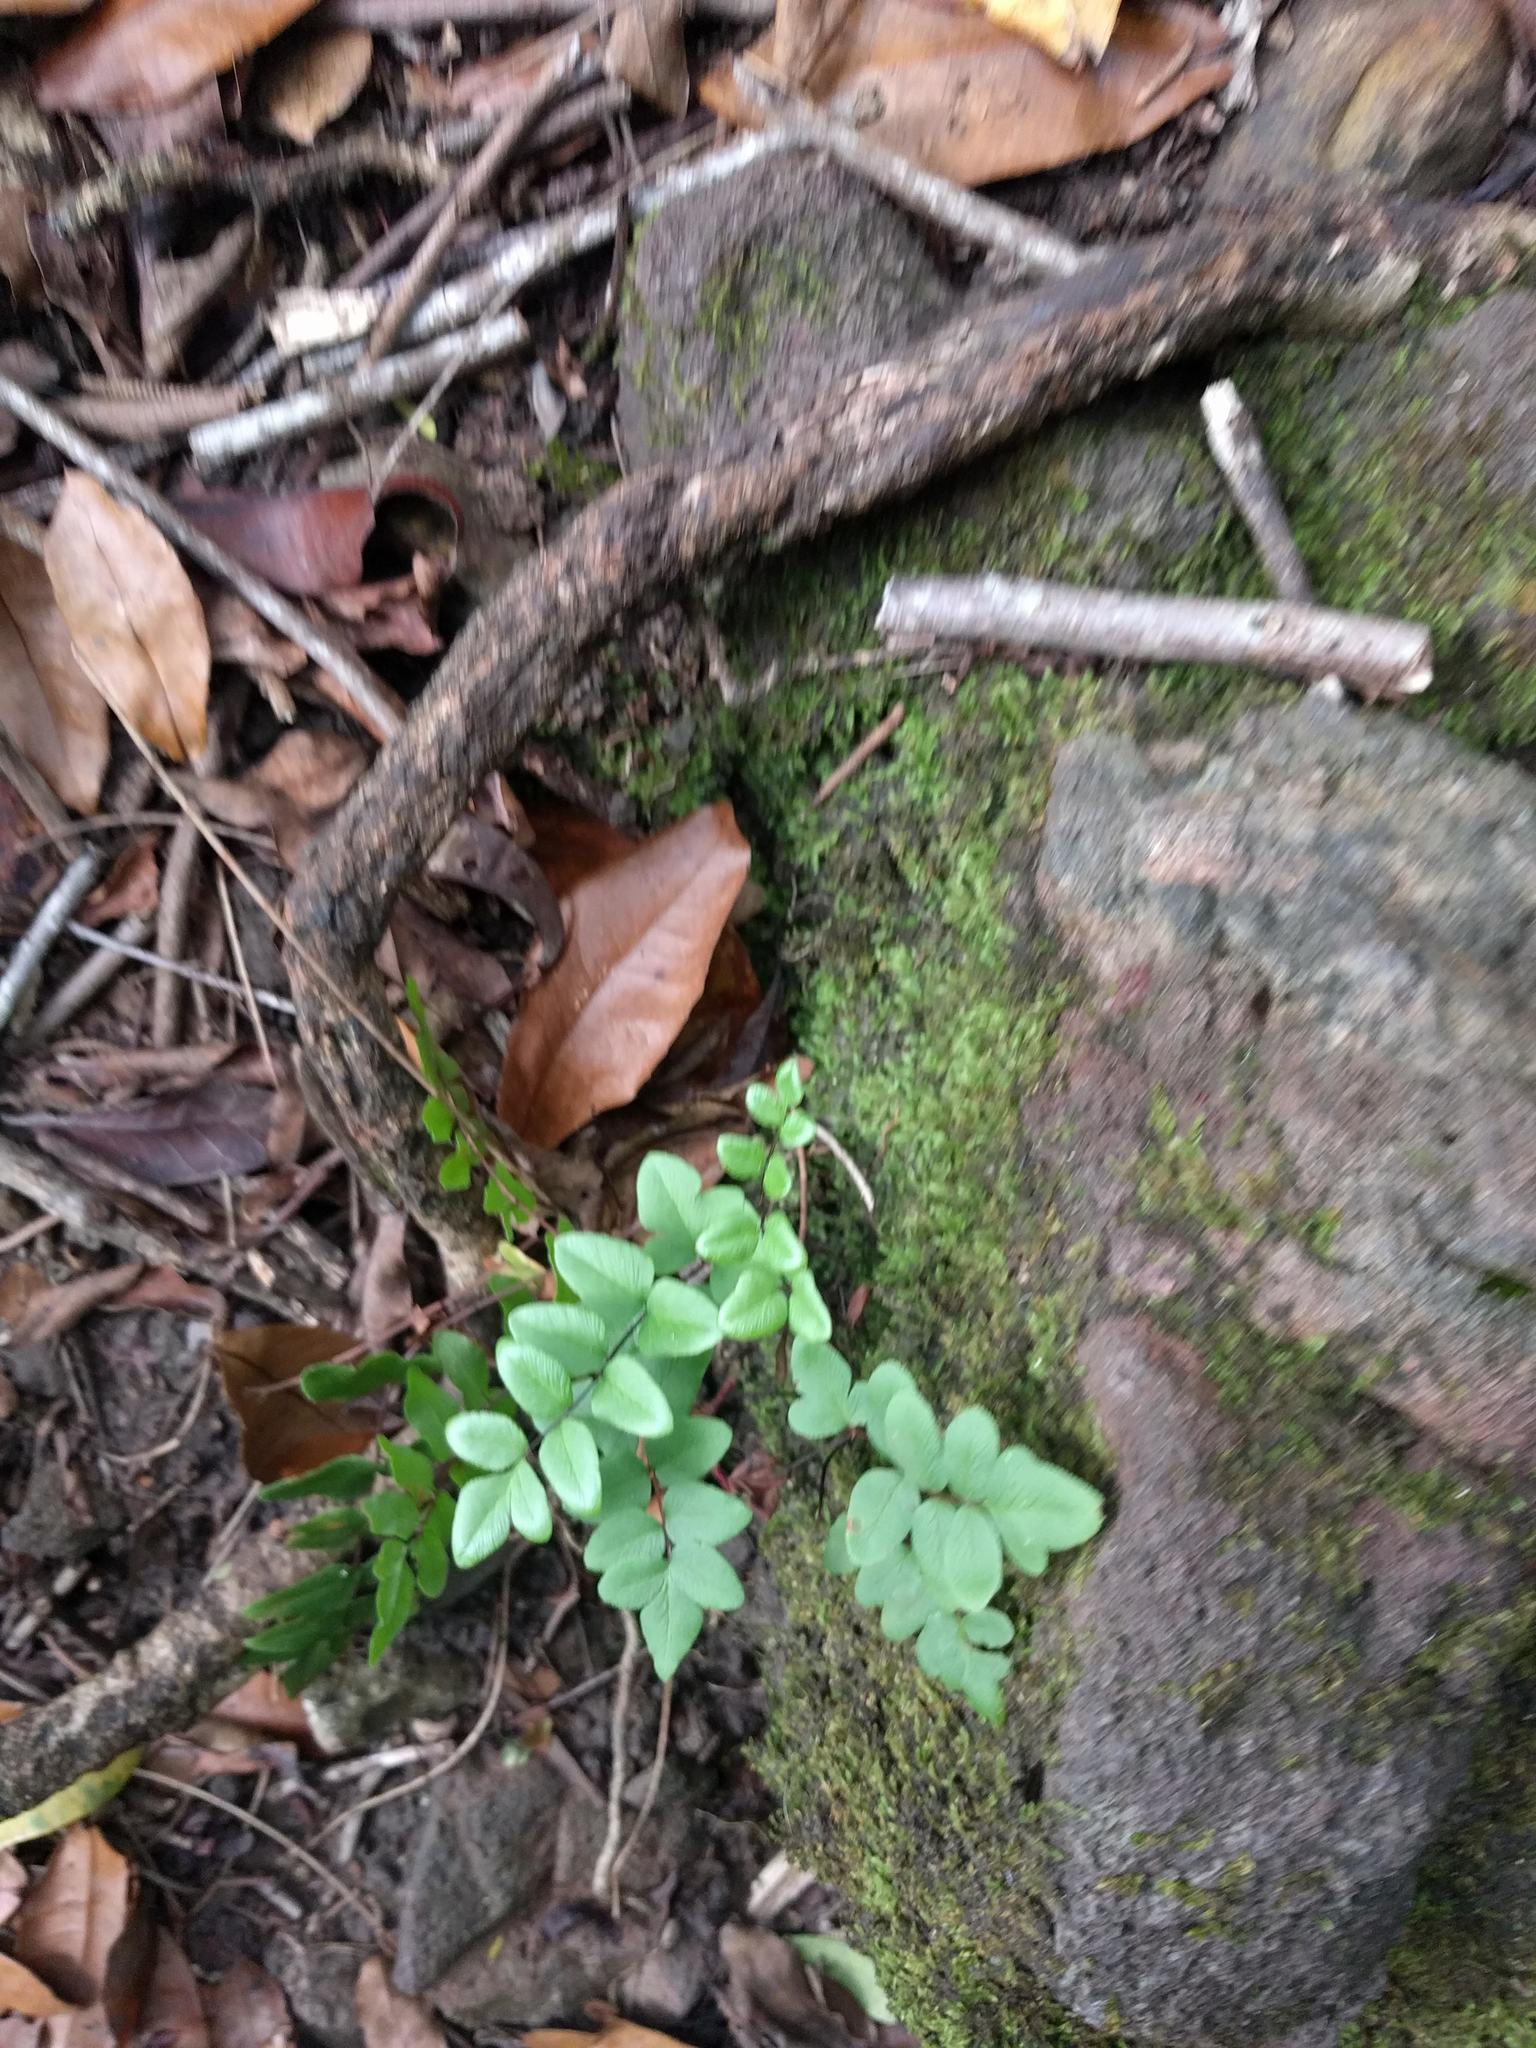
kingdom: Plantae
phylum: Tracheophyta
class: Polypodiopsida
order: Polypodiales
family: Pteridaceae
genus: Cheilanthes
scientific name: Cheilanthes viridis
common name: Green cliffbrake
